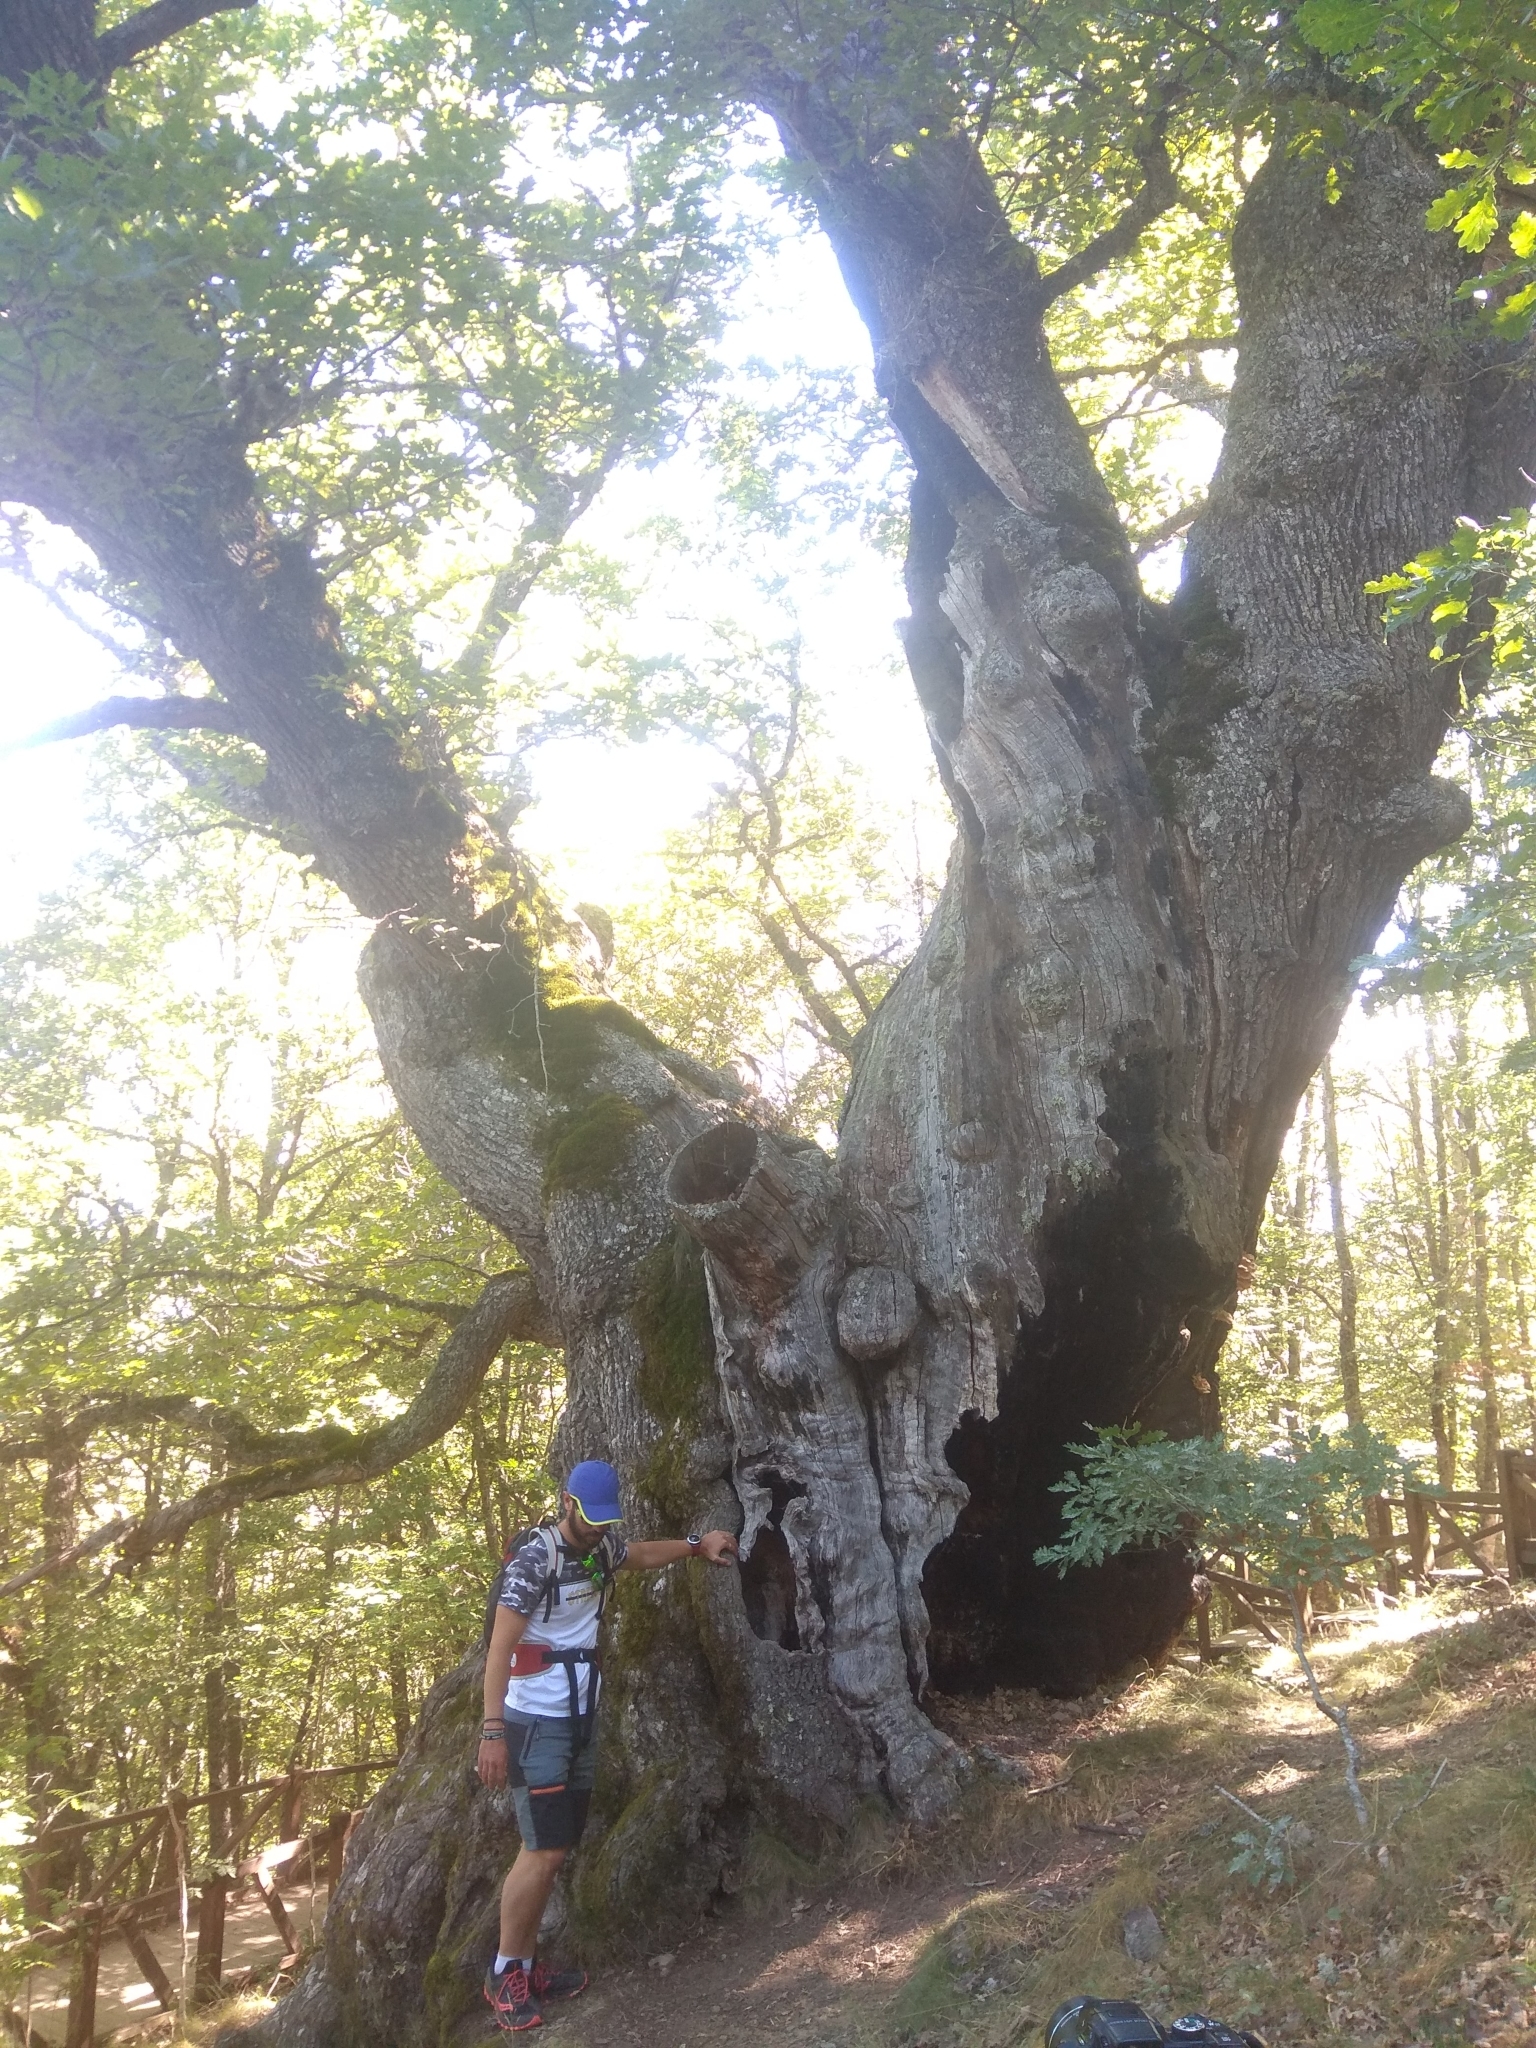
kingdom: Plantae
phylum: Tracheophyta
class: Magnoliopsida
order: Fagales
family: Fagaceae
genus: Quercus
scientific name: Quercus petraea
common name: Sessile oak
